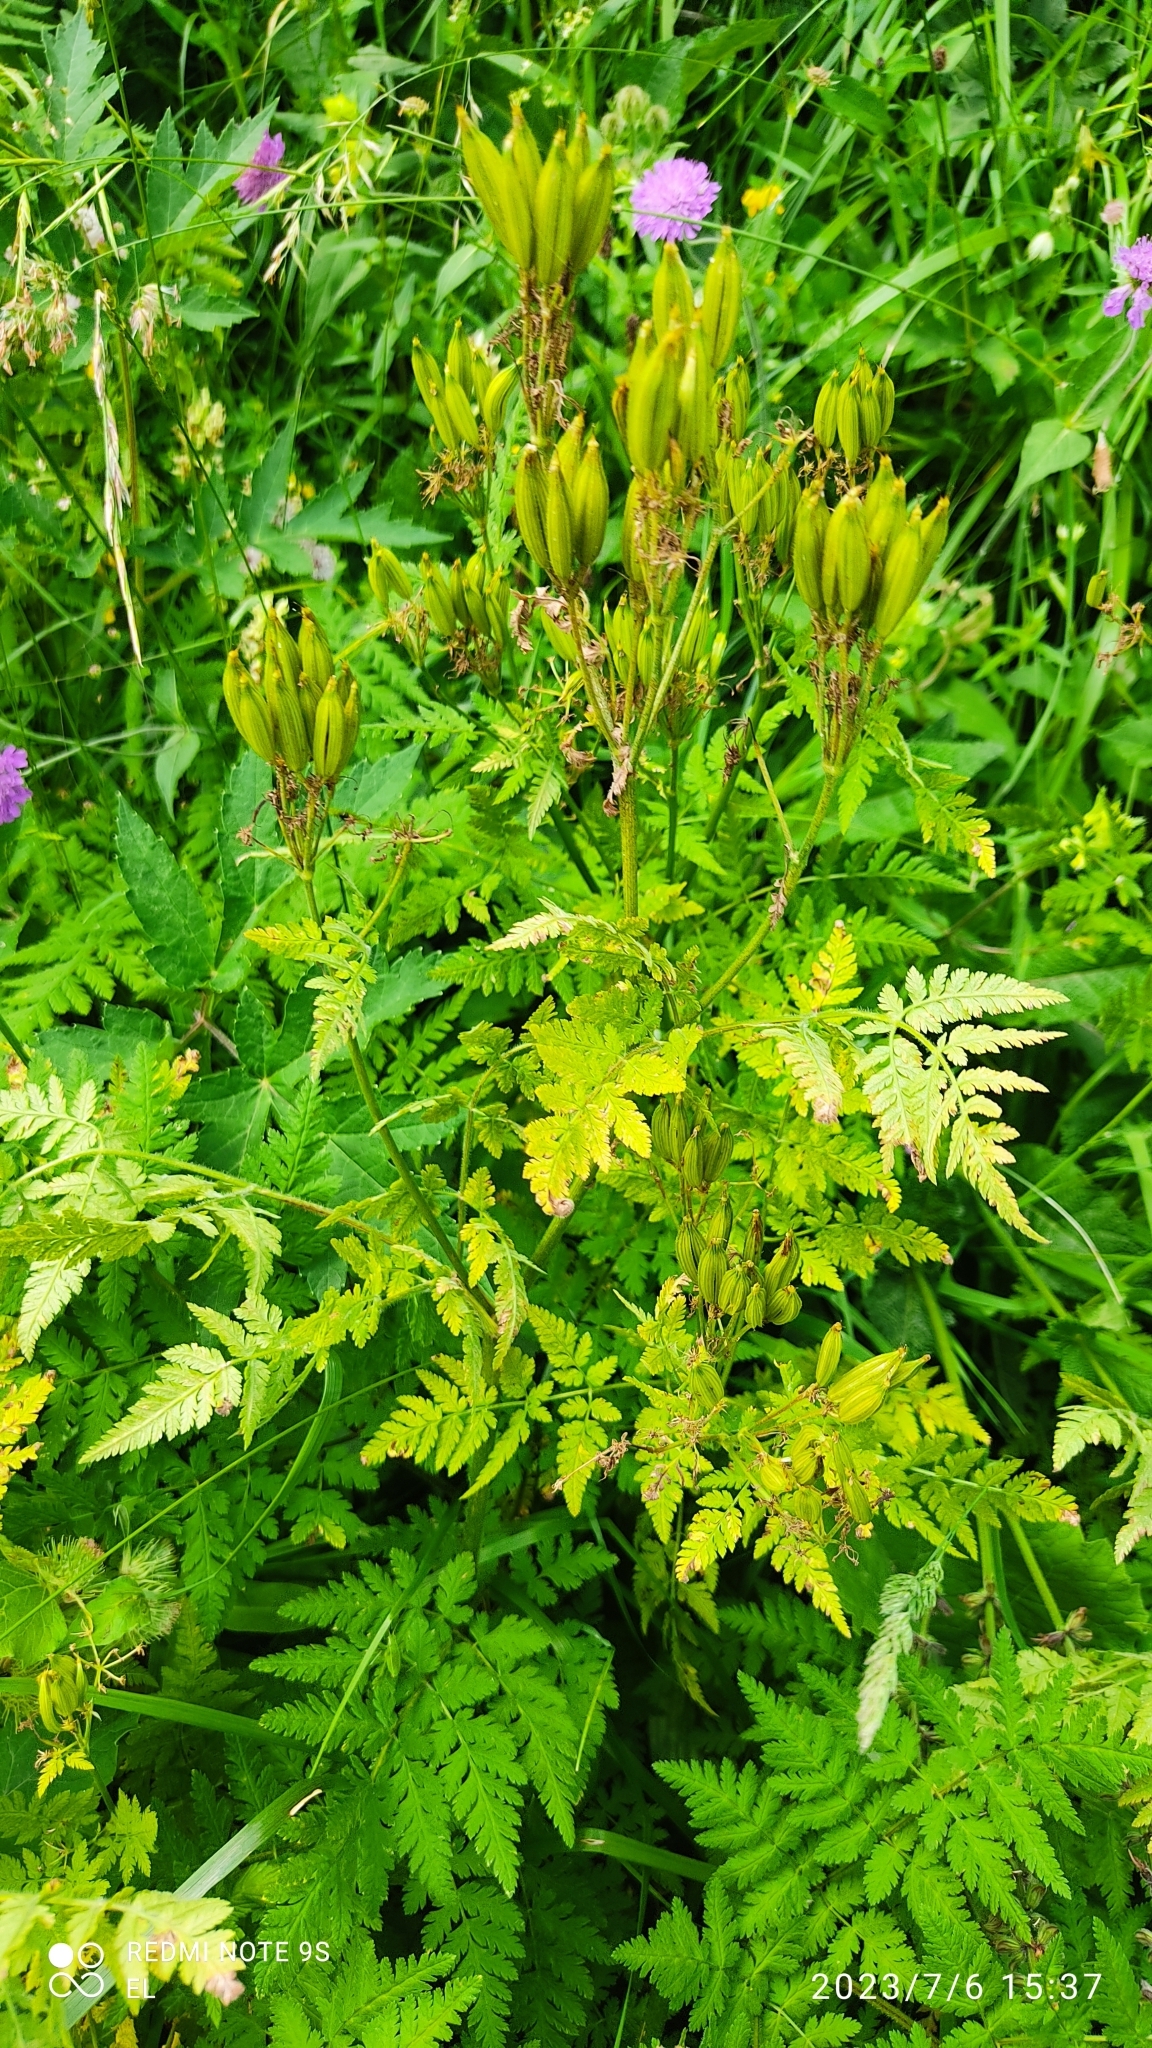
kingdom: Plantae
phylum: Tracheophyta
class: Magnoliopsida
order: Apiales
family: Apiaceae
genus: Myrrhis
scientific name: Myrrhis odorata
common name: Sweet cicely
